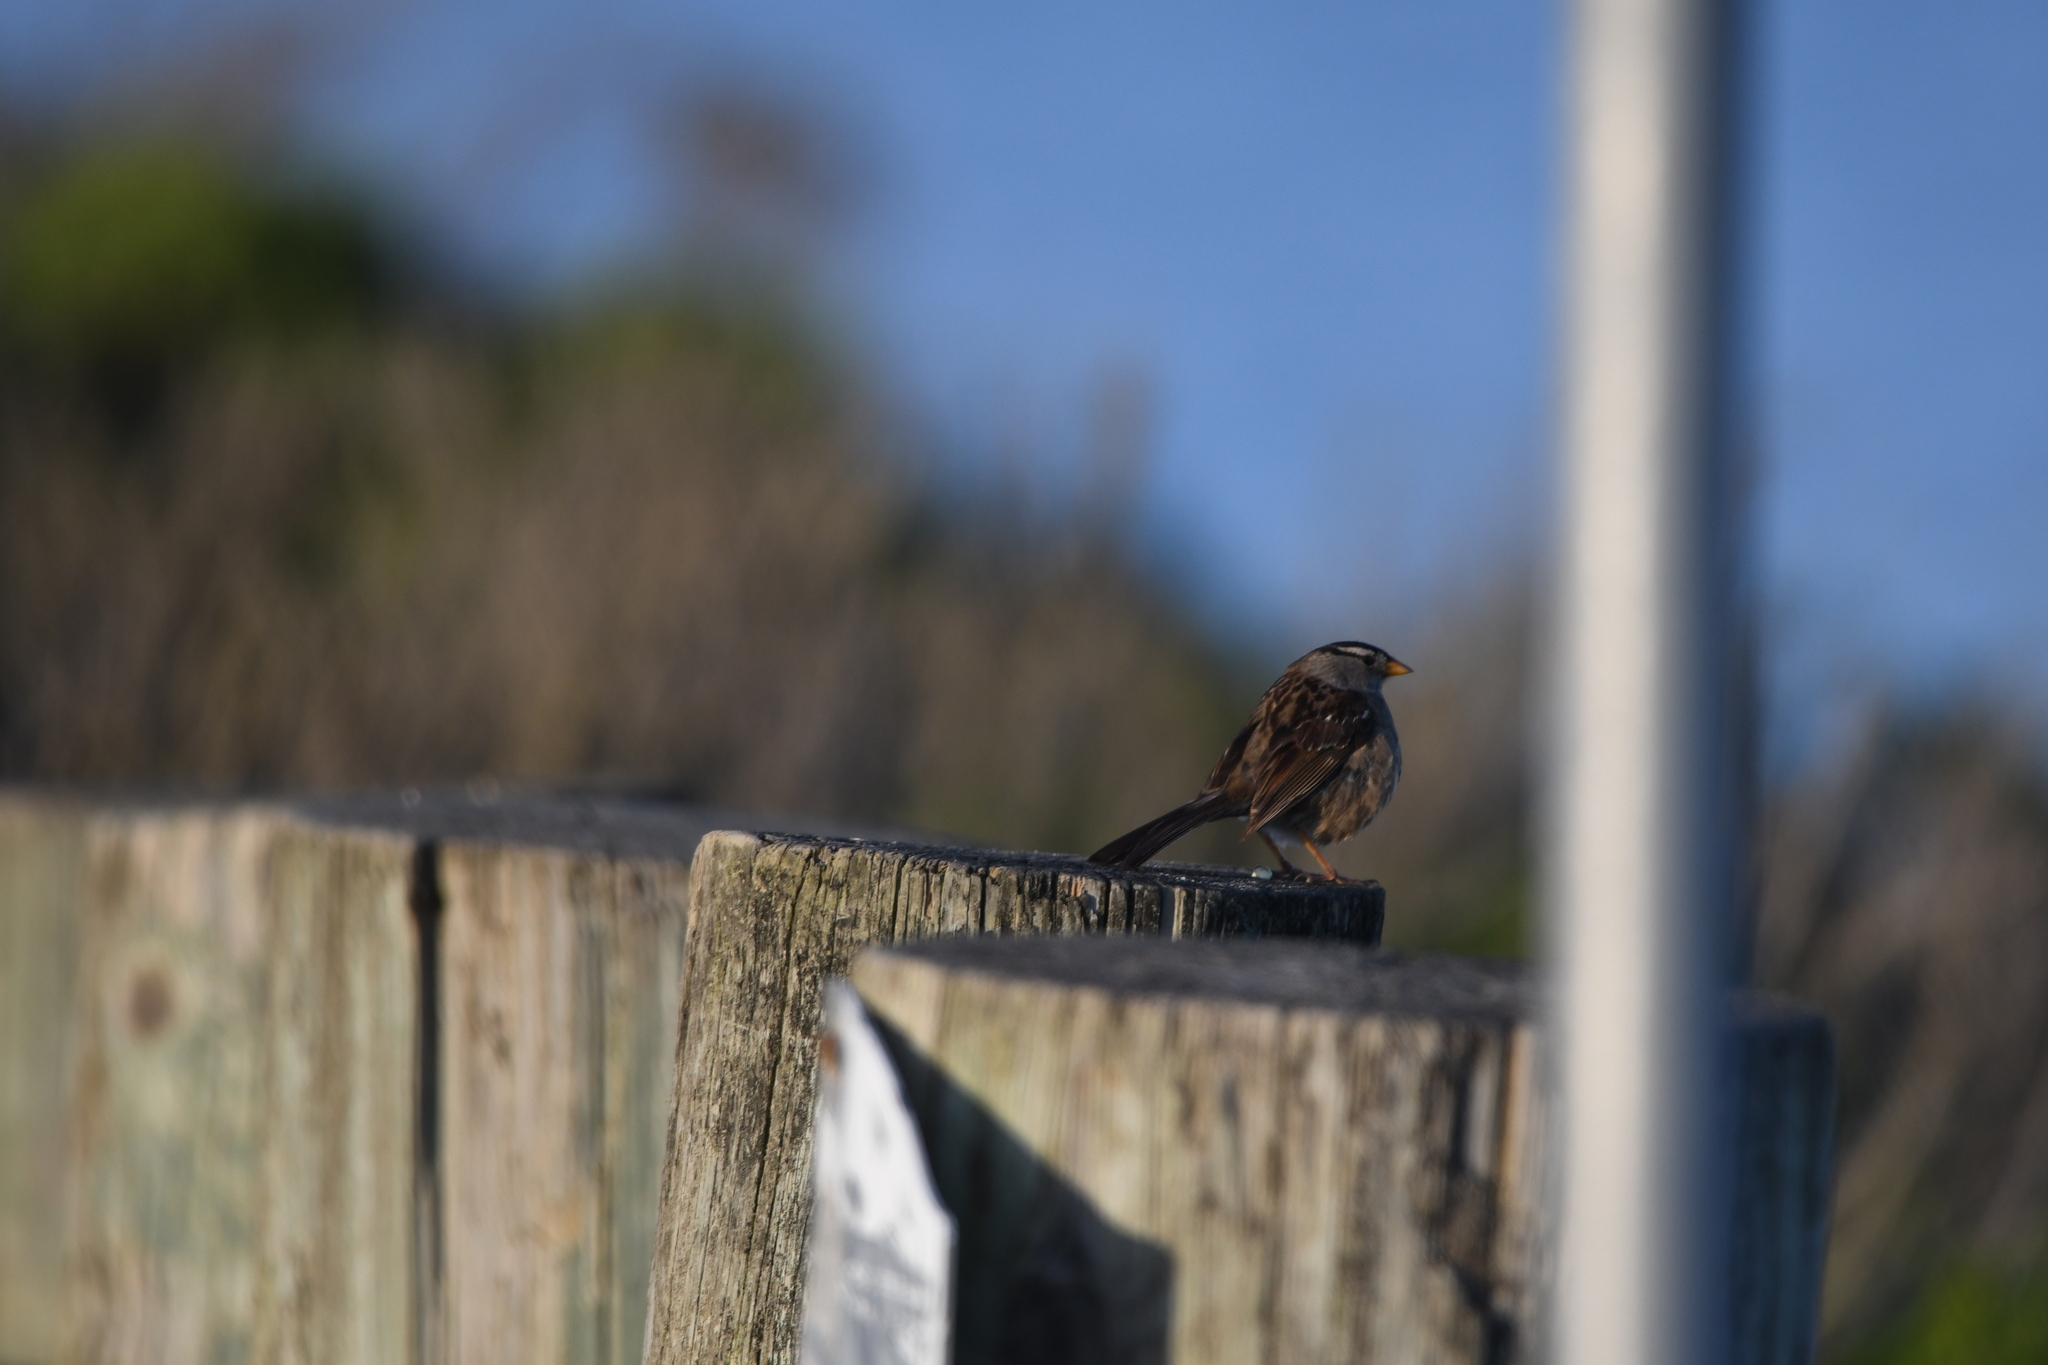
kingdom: Animalia
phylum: Chordata
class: Aves
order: Passeriformes
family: Passerellidae
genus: Zonotrichia
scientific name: Zonotrichia leucophrys
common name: White-crowned sparrow
